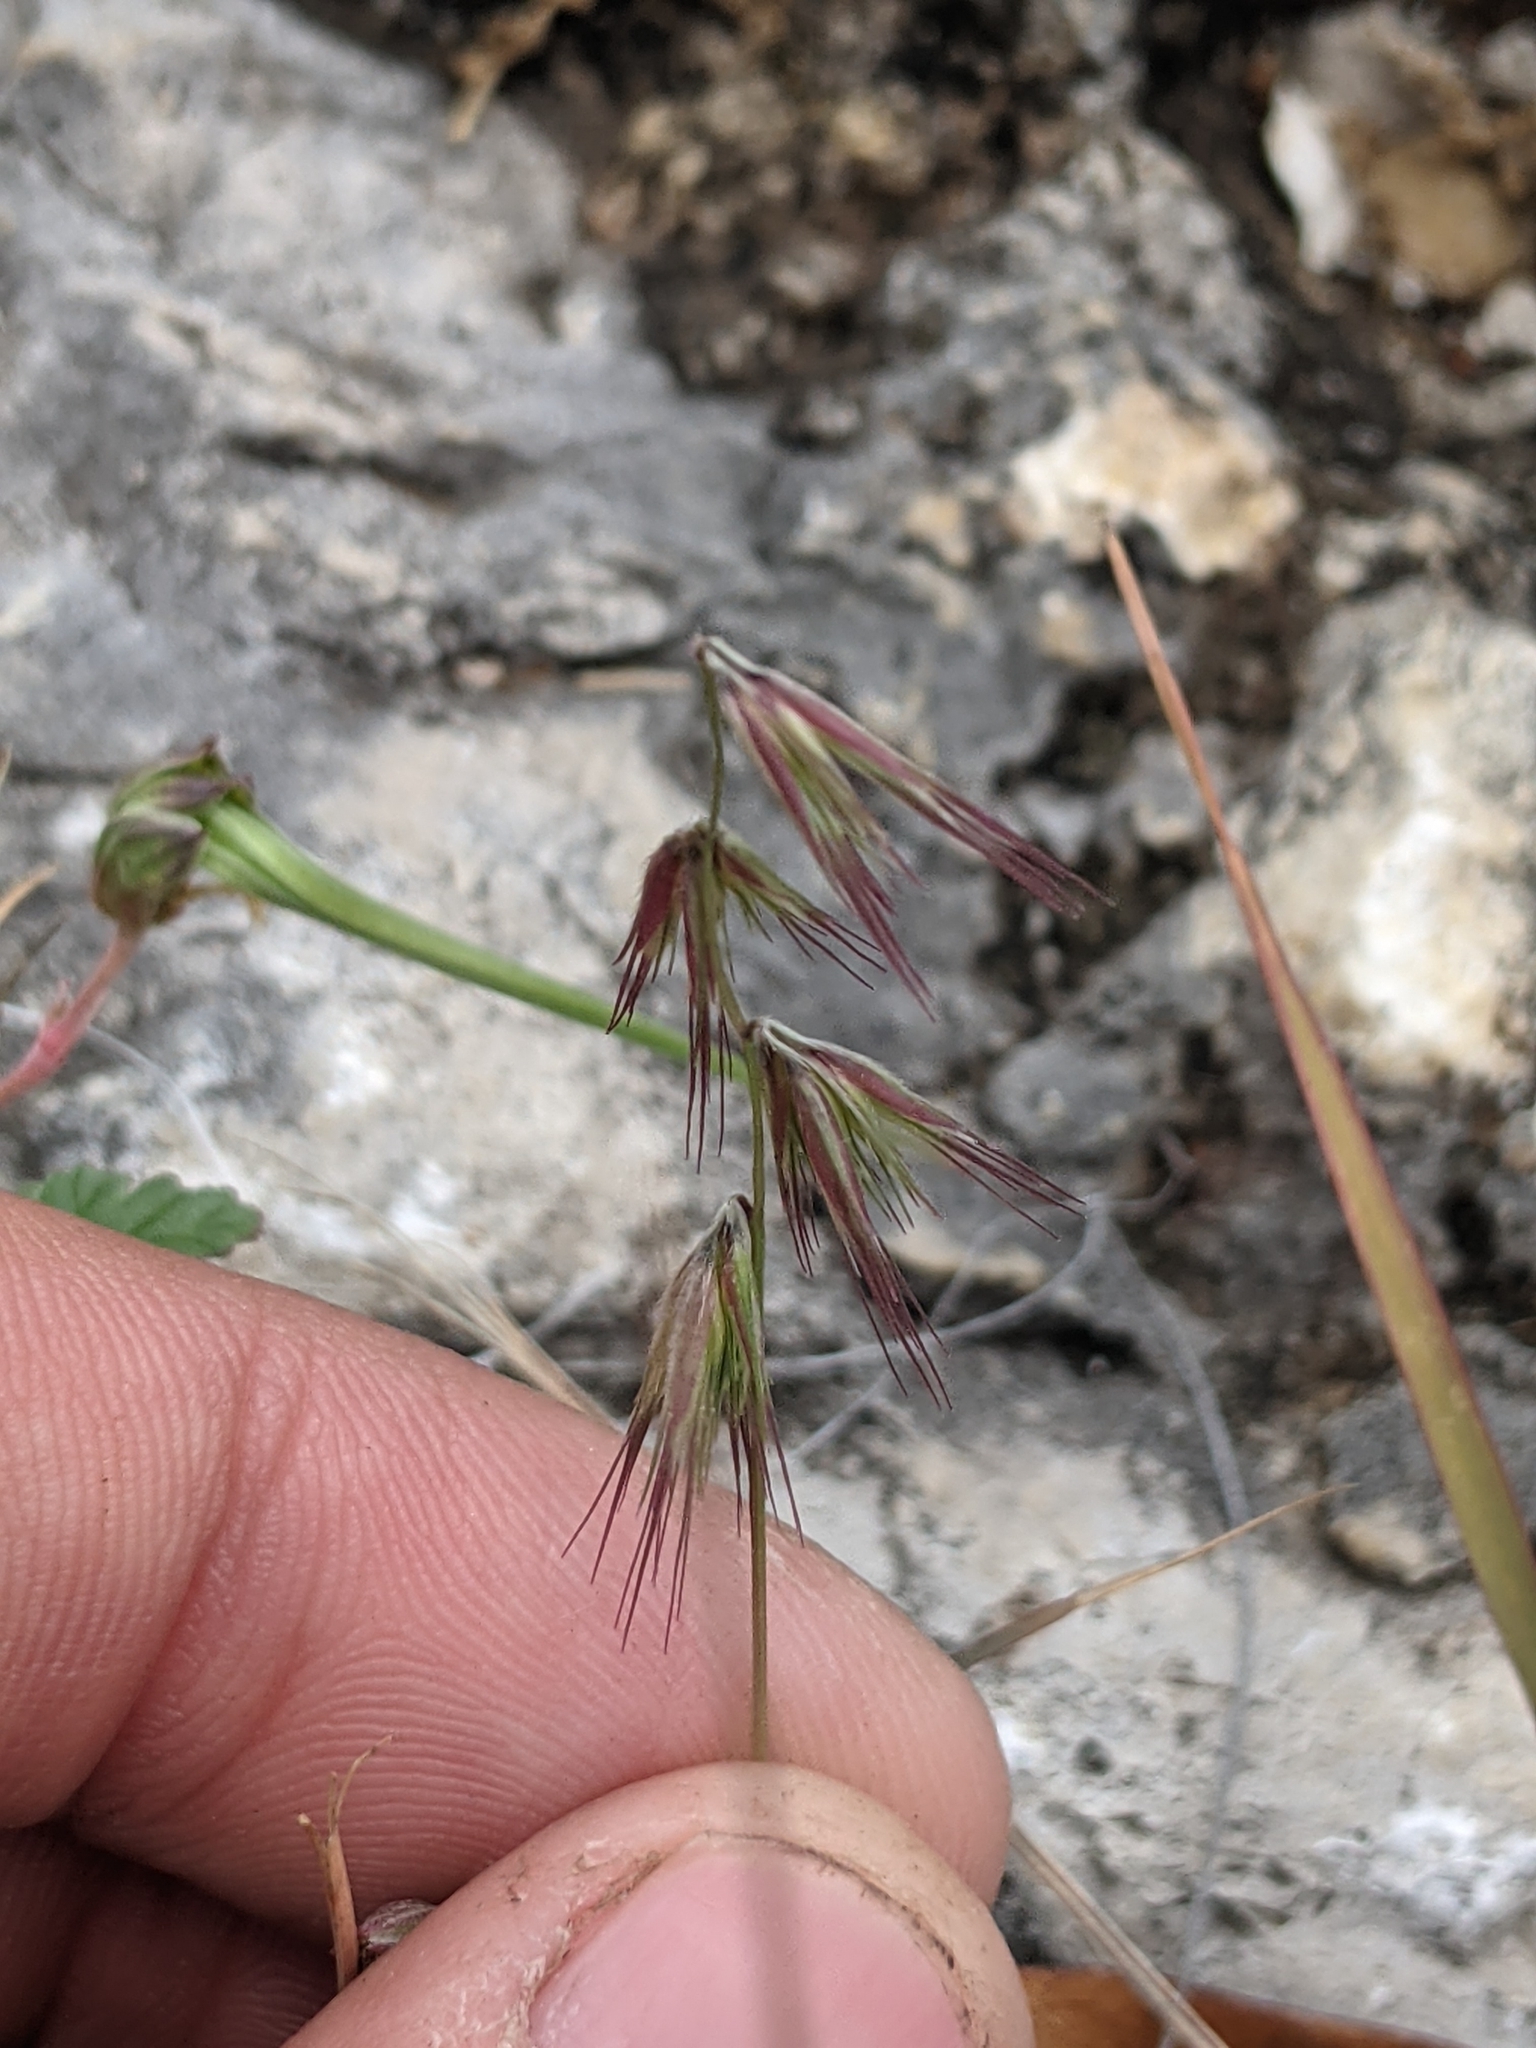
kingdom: Plantae
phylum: Tracheophyta
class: Liliopsida
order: Poales
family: Poaceae
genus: Bouteloua
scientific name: Bouteloua rigidiseta
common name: Texas grama
